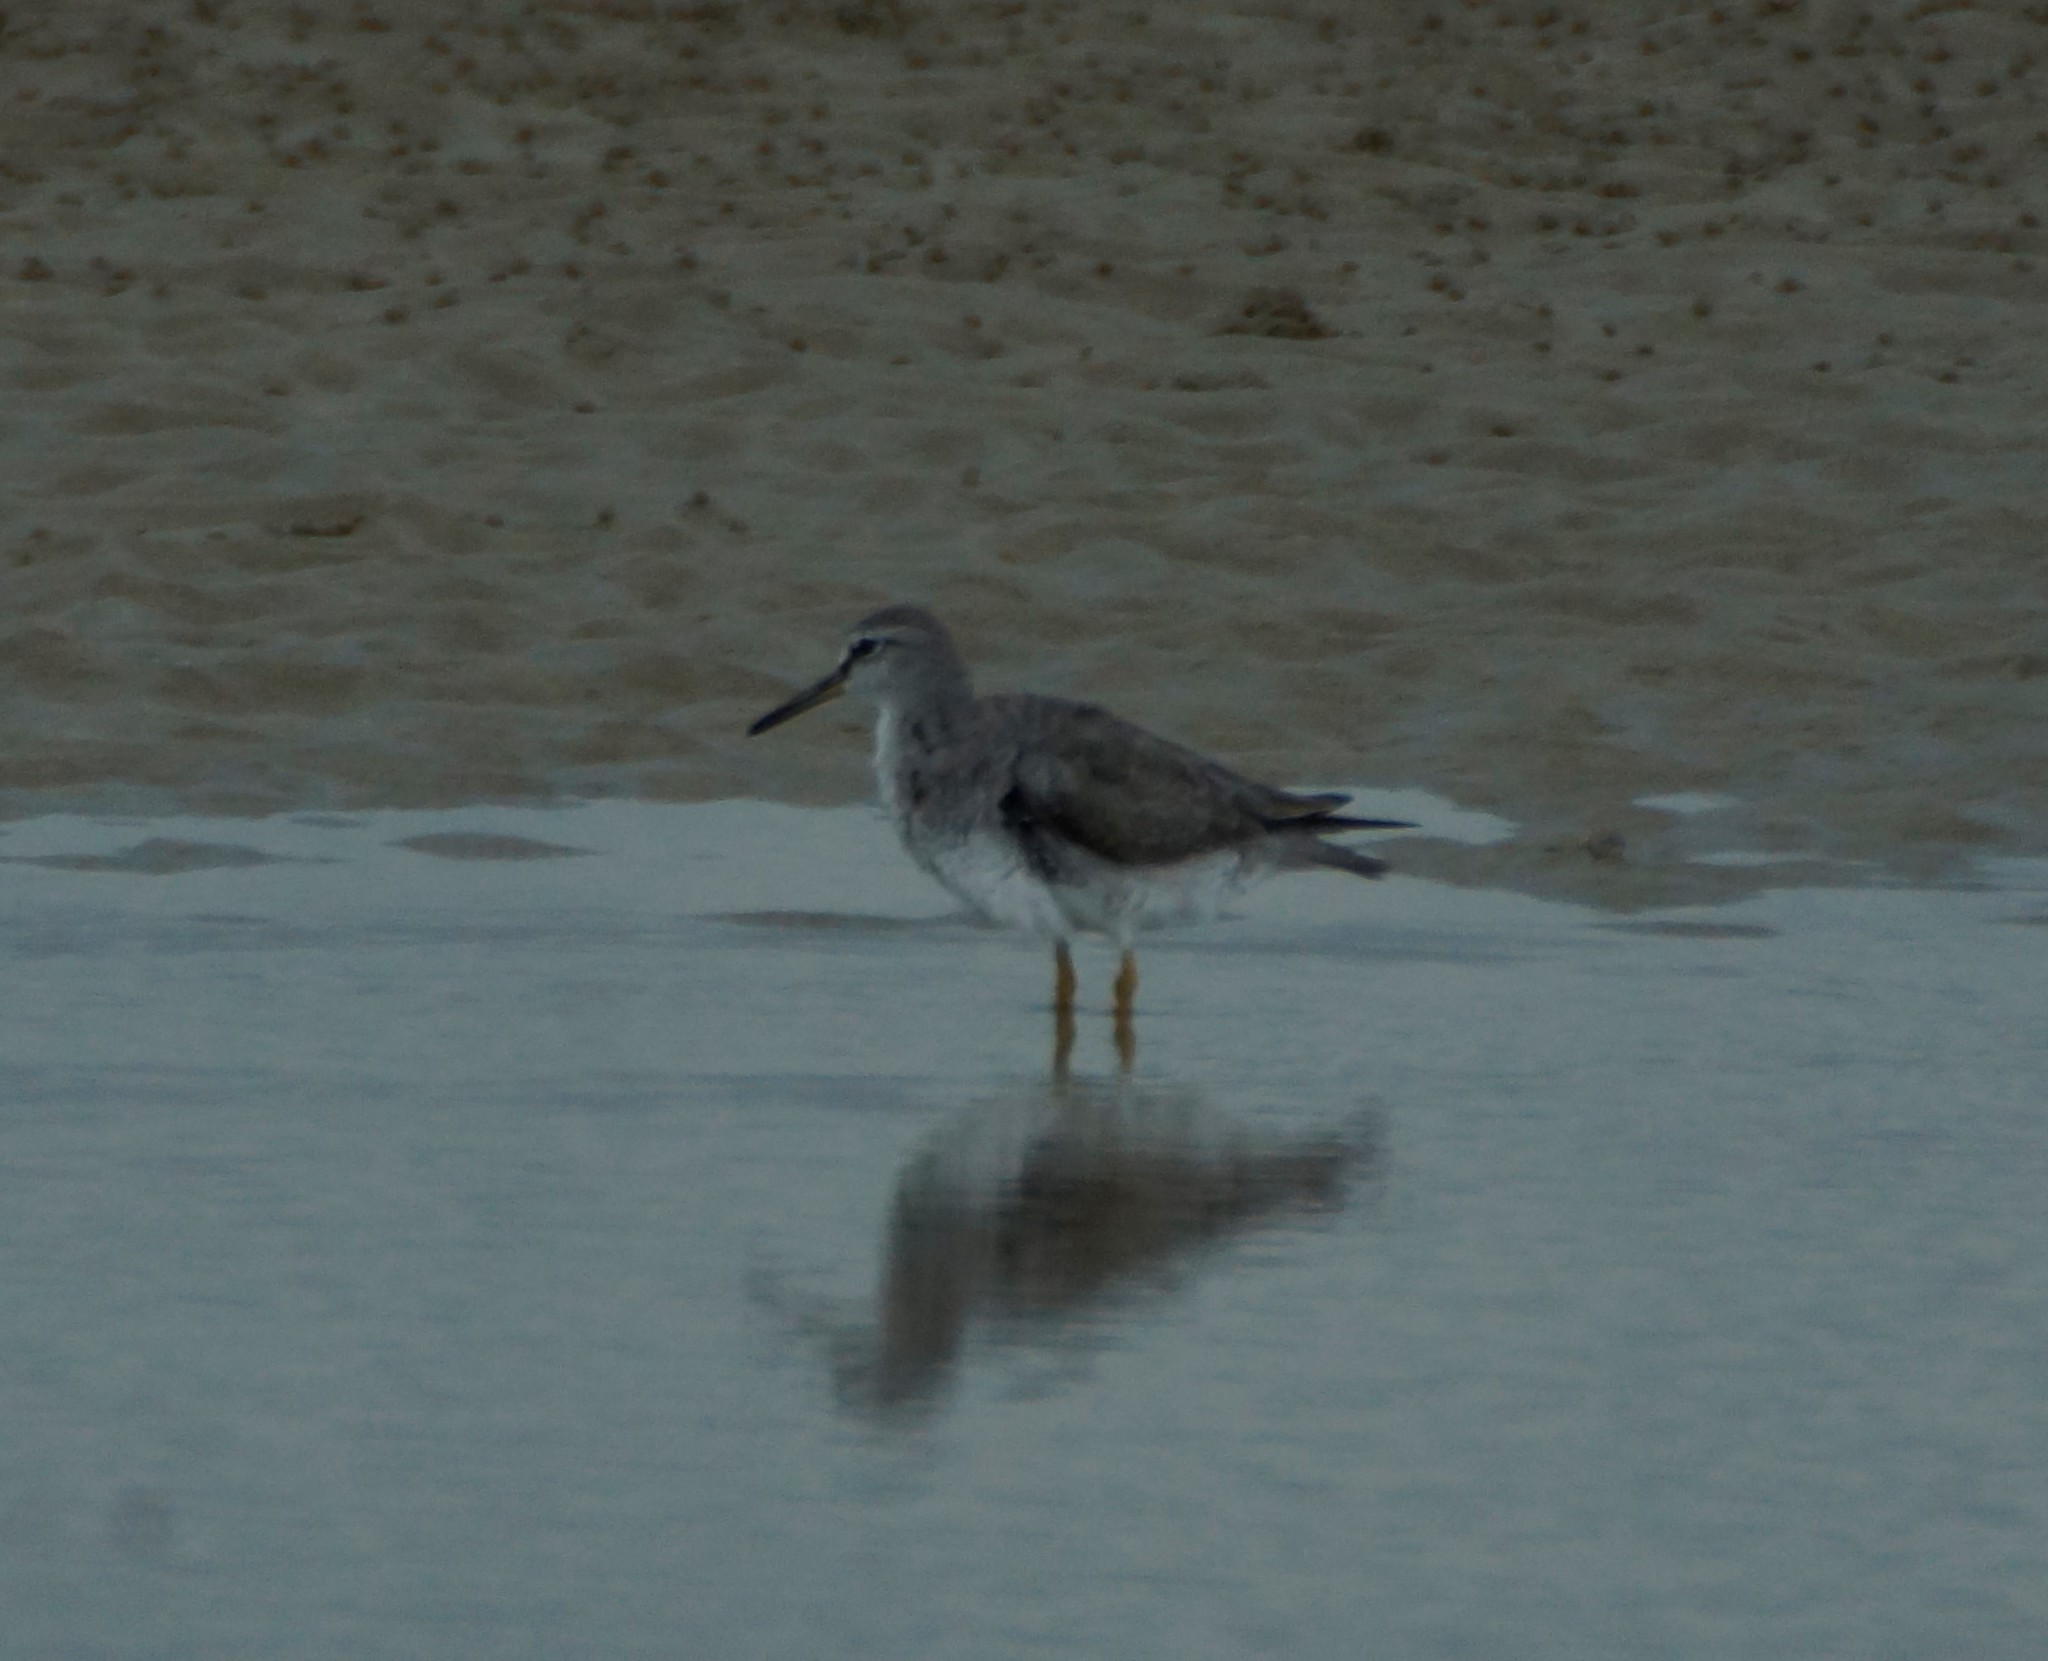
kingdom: Animalia
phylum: Chordata
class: Aves
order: Charadriiformes
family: Scolopacidae
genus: Tringa
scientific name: Tringa brevipes
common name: Grey-tailed tattler
